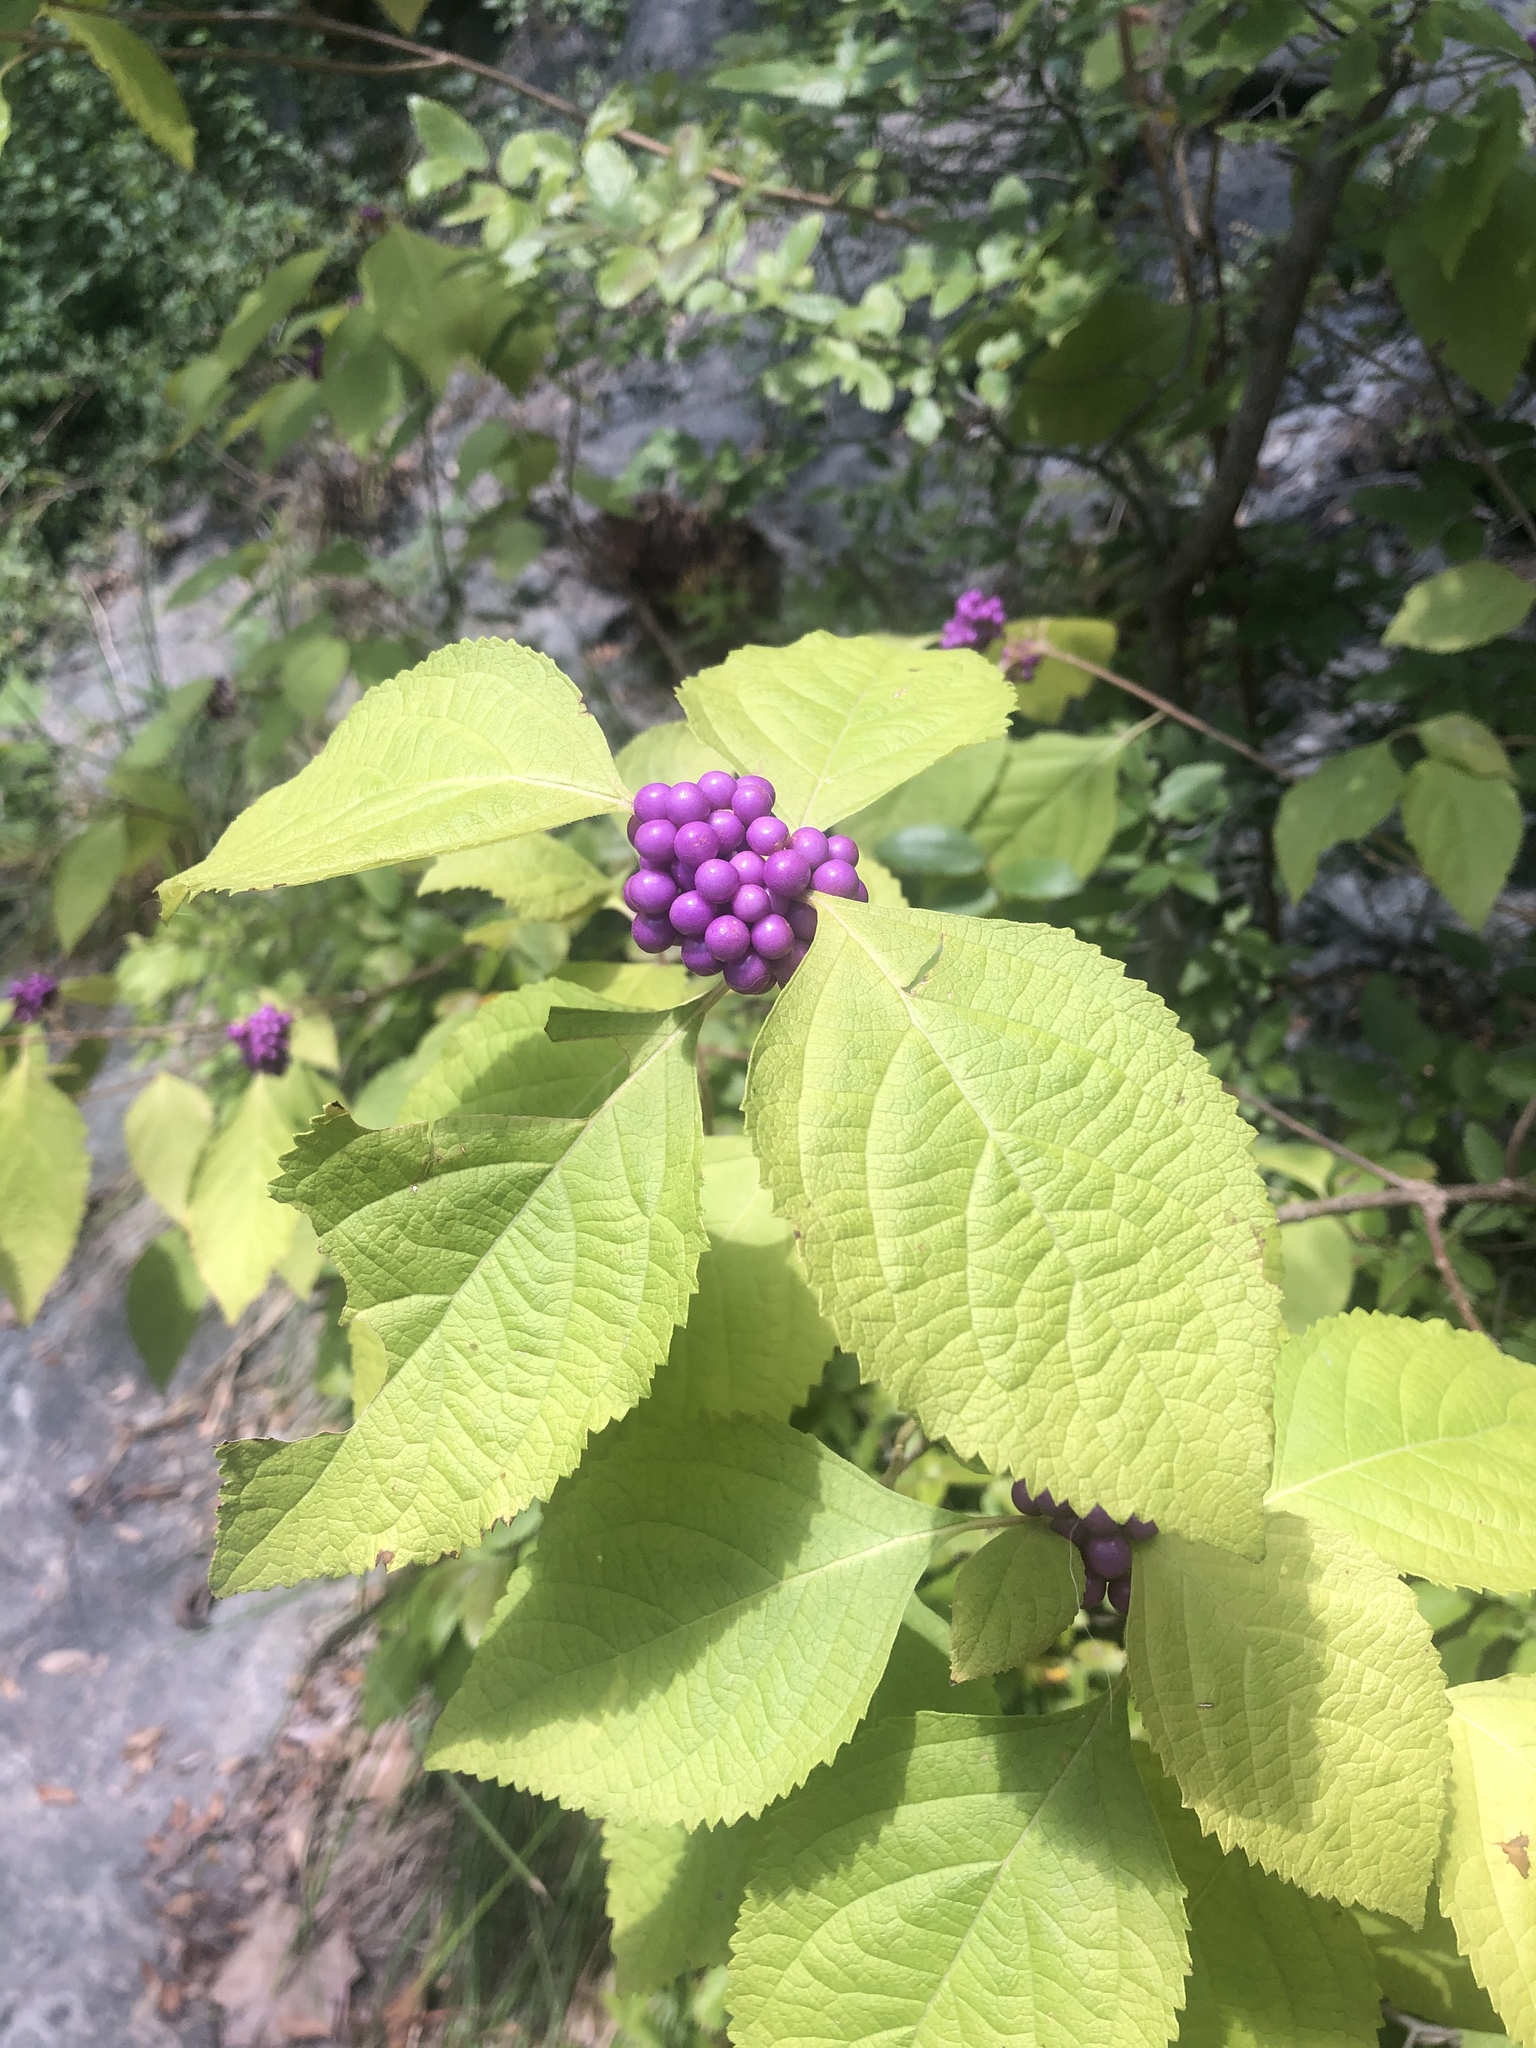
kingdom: Plantae
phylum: Tracheophyta
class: Magnoliopsida
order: Lamiales
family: Lamiaceae
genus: Callicarpa
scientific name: Callicarpa americana
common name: American beautyberry
